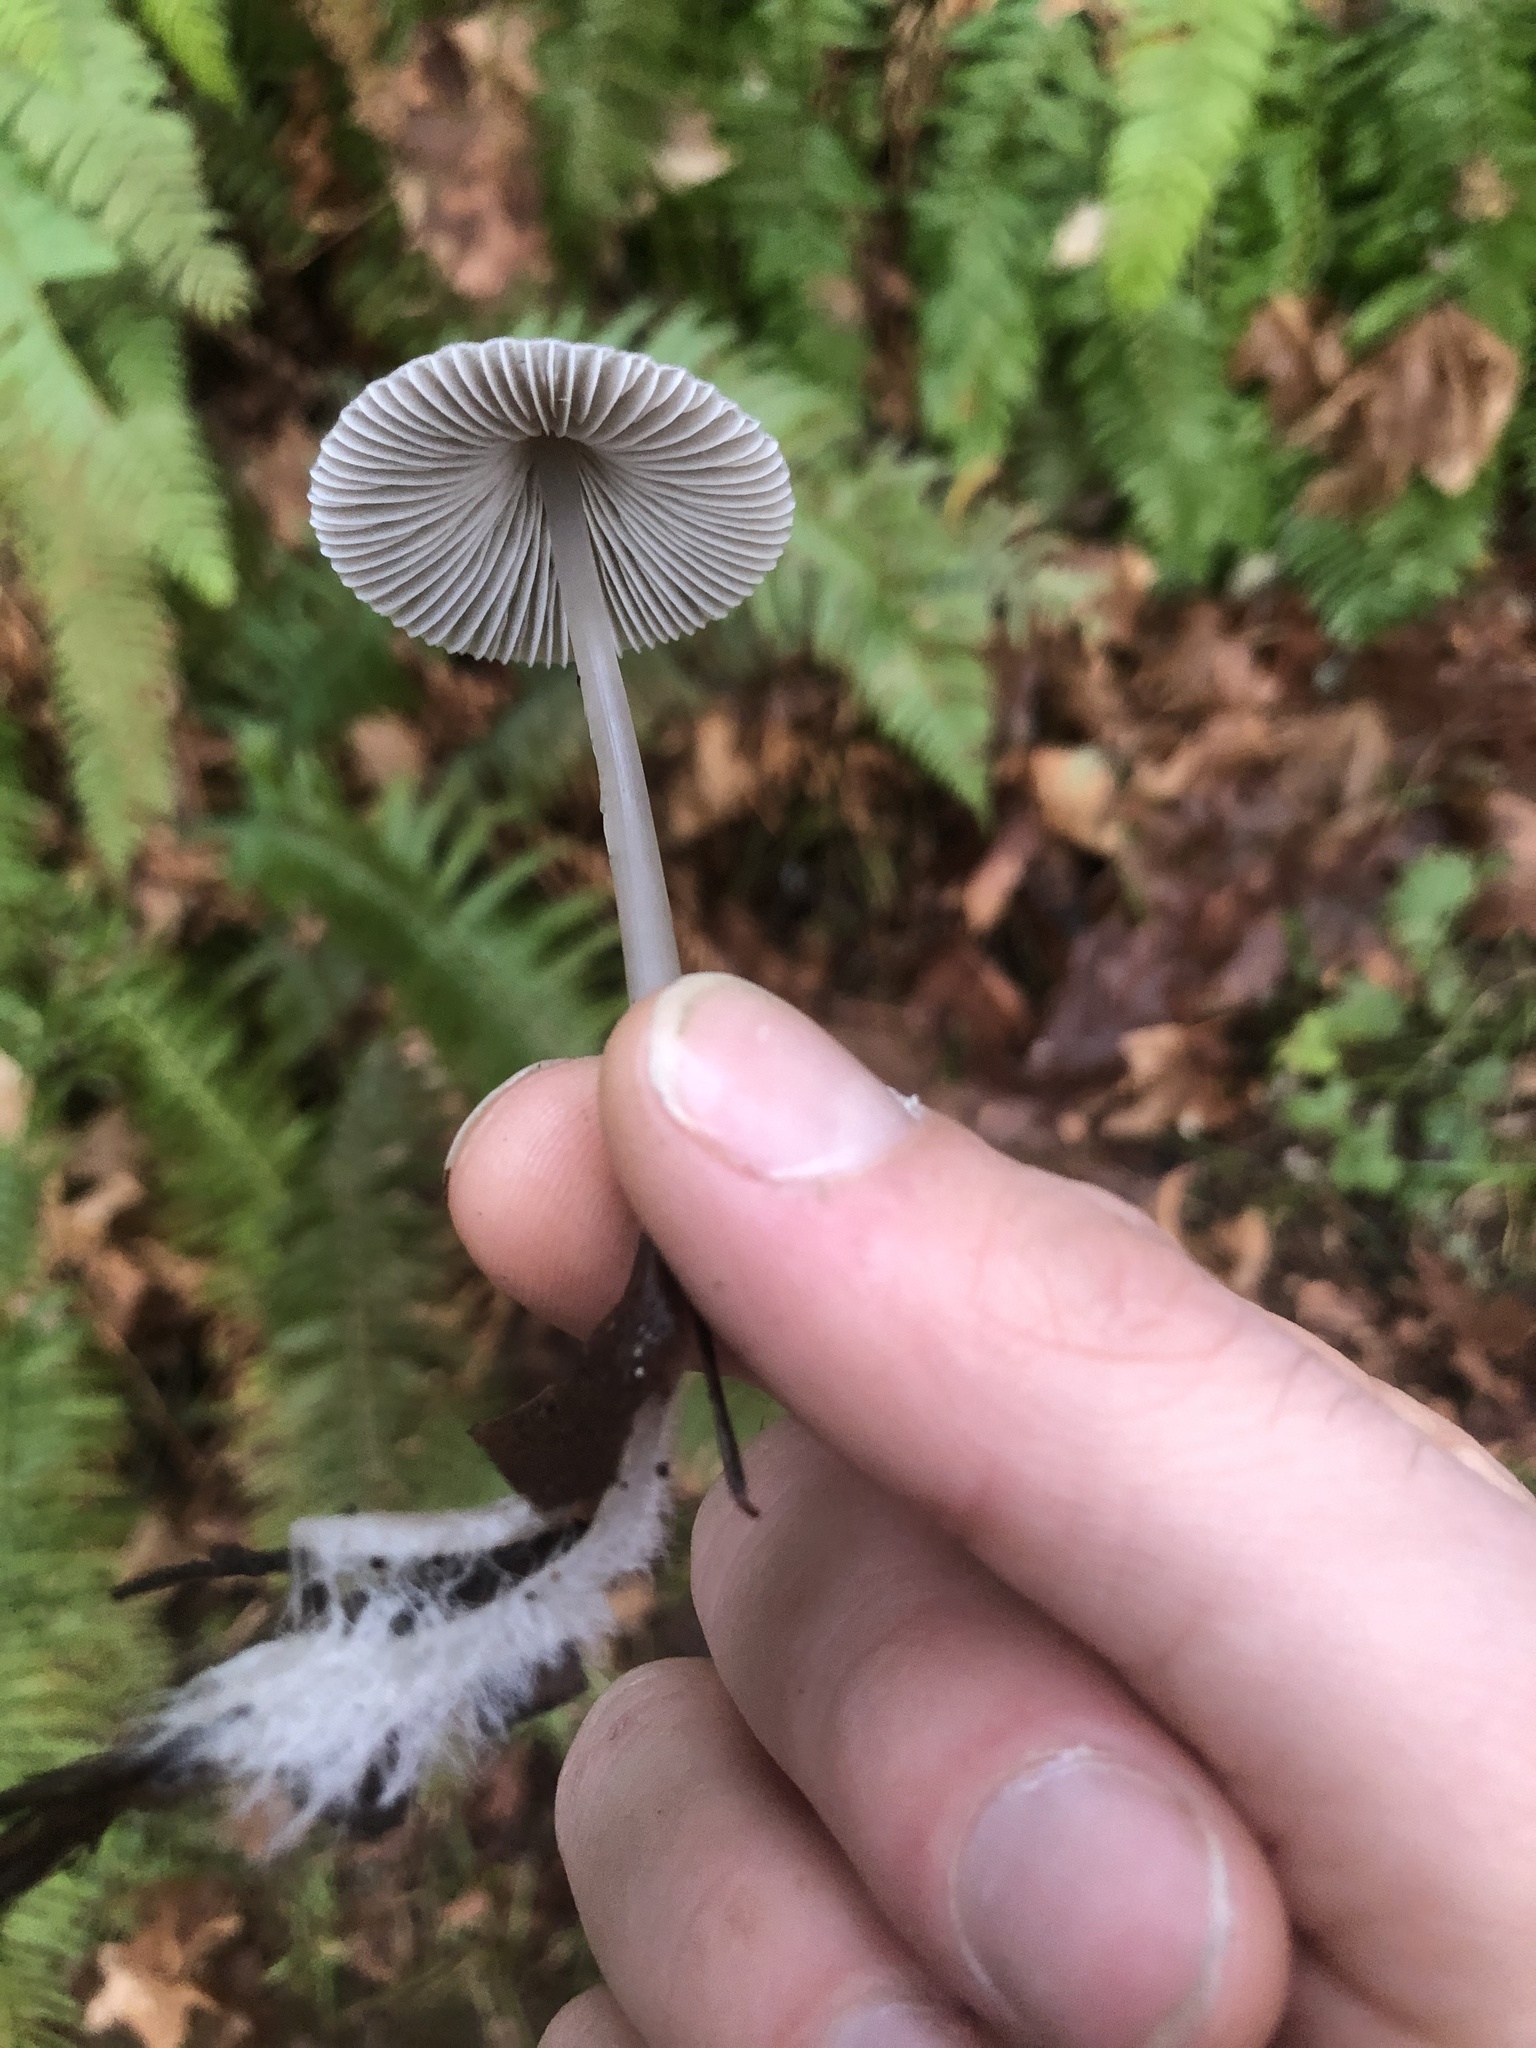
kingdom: Fungi
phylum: Basidiomycota
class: Agaricomycetes
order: Agaricales
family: Mycenaceae
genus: Mycena
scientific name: Mycena leptocephala
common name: Nitrous bonnet
